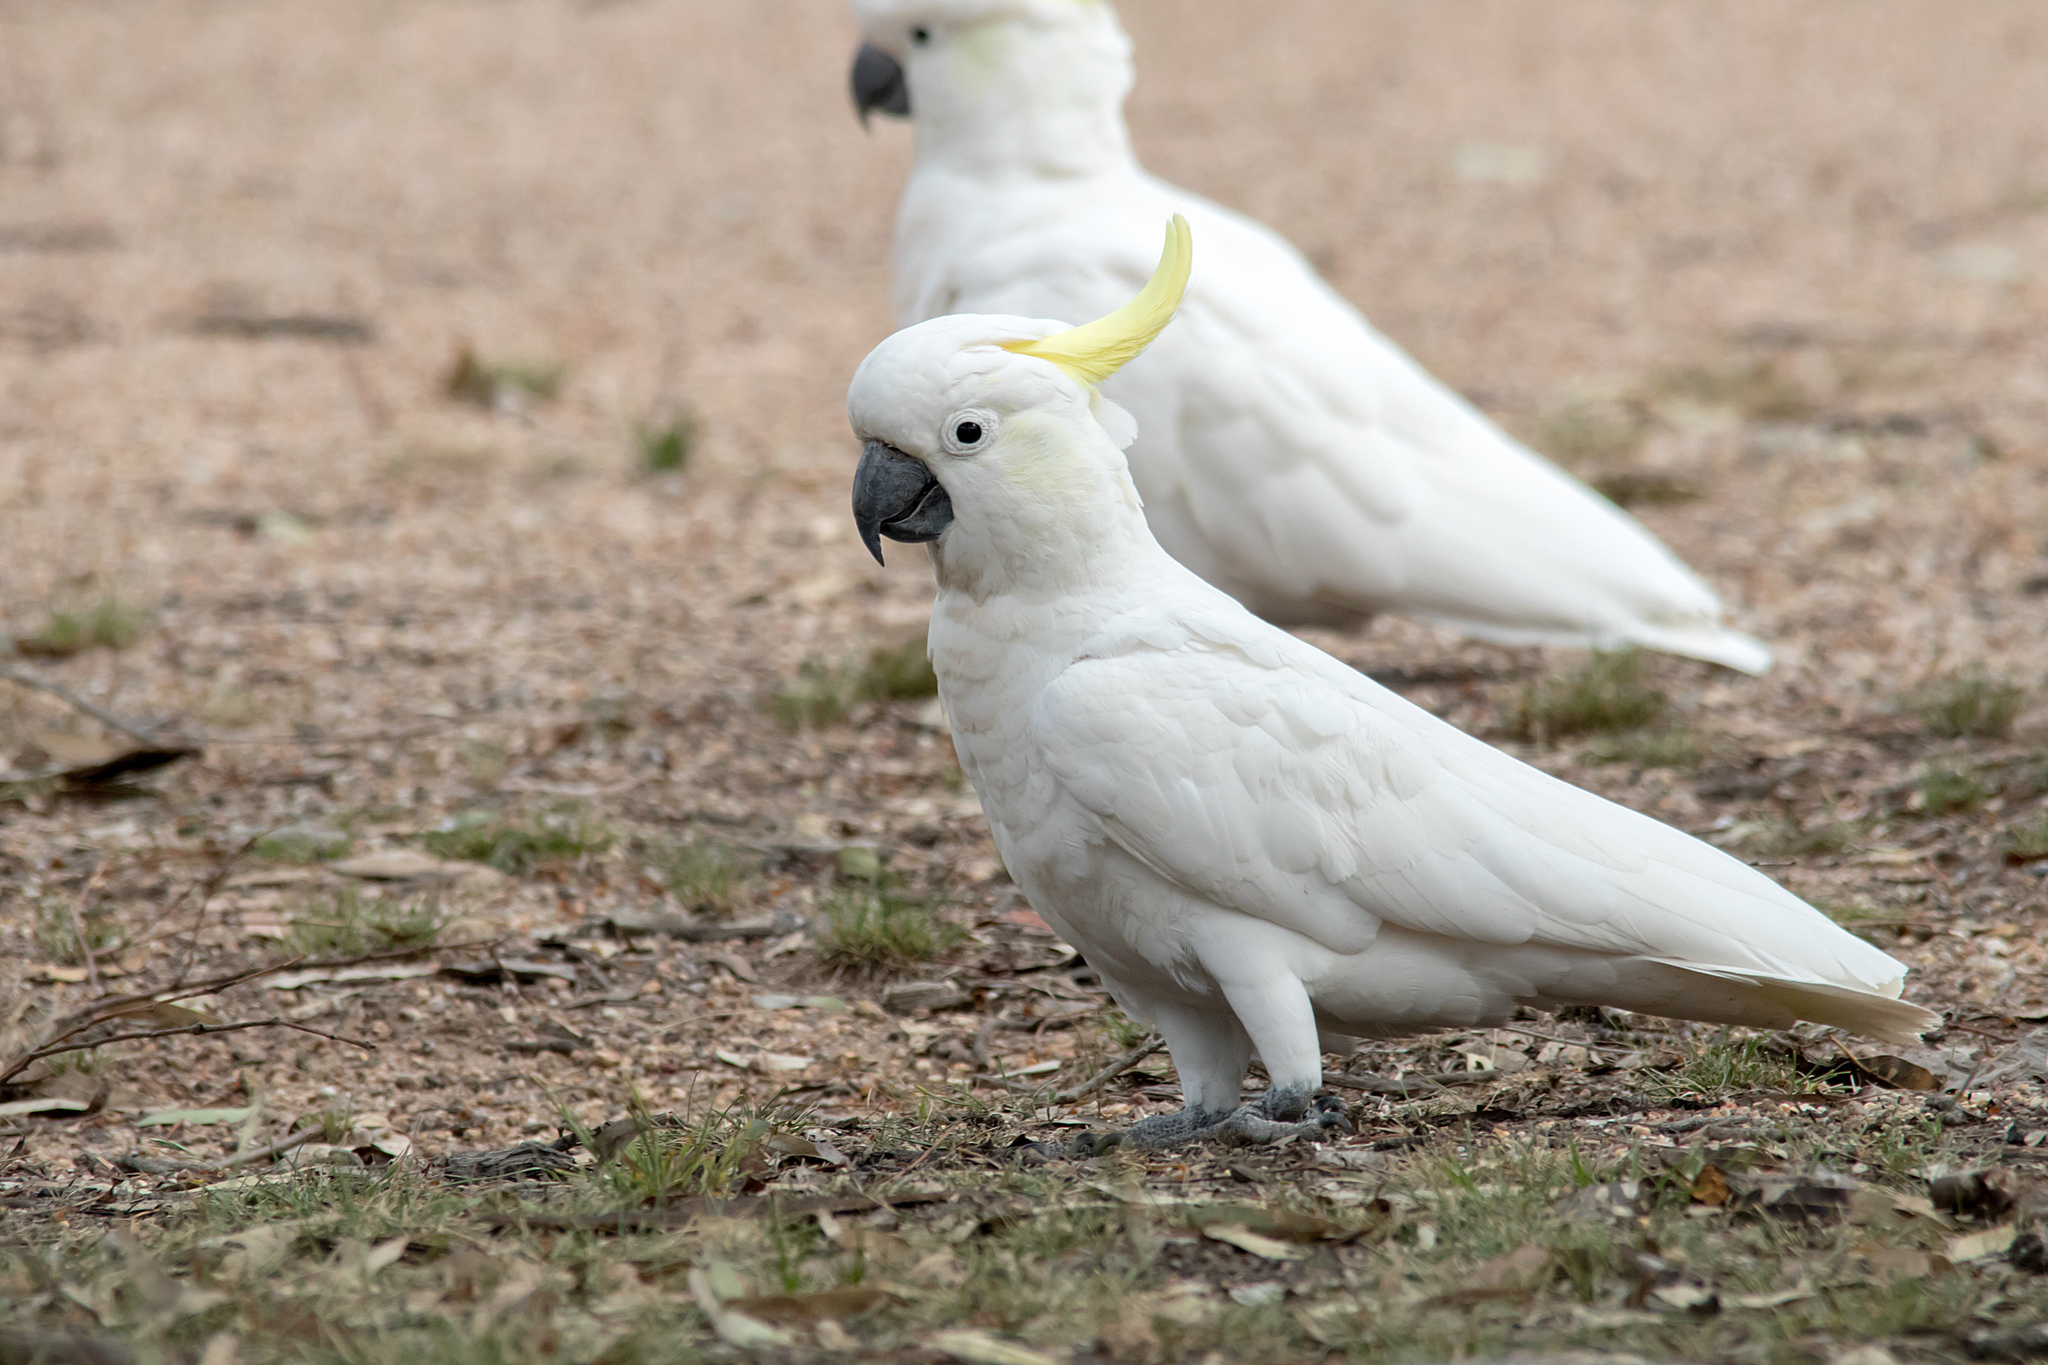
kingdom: Animalia
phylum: Chordata
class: Aves
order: Psittaciformes
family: Psittacidae
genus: Cacatua
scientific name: Cacatua galerita
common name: Sulphur-crested cockatoo
